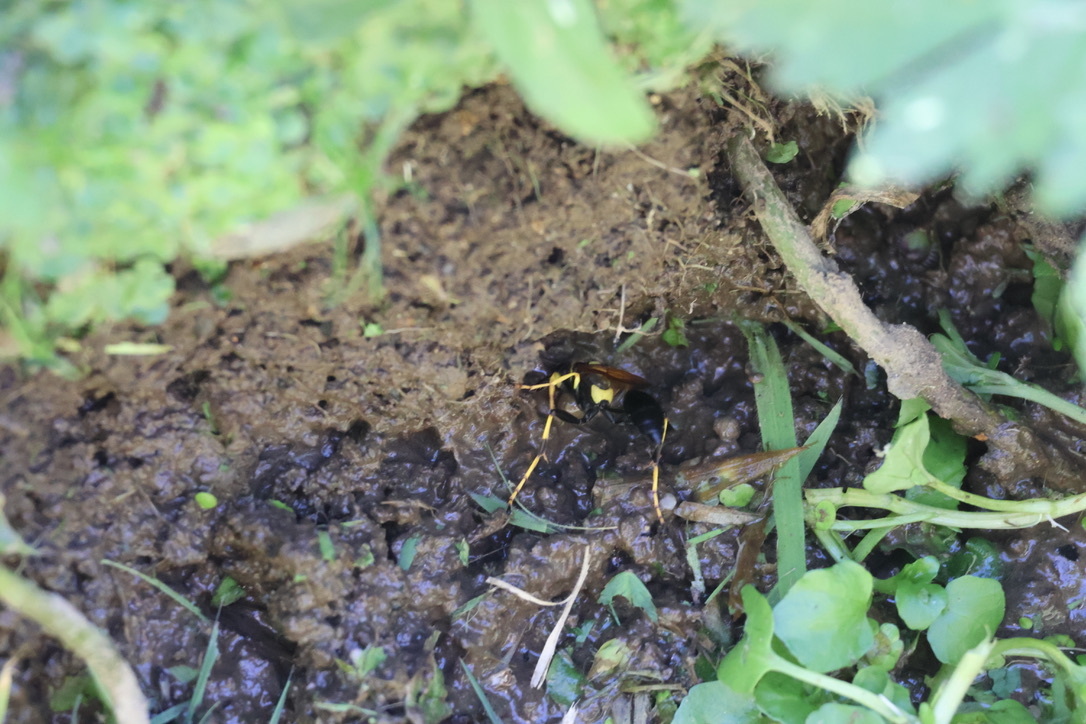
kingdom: Animalia
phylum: Arthropoda
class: Insecta
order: Hymenoptera
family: Sphecidae
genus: Sceliphron
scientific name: Sceliphron caementarium
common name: Mud dauber
